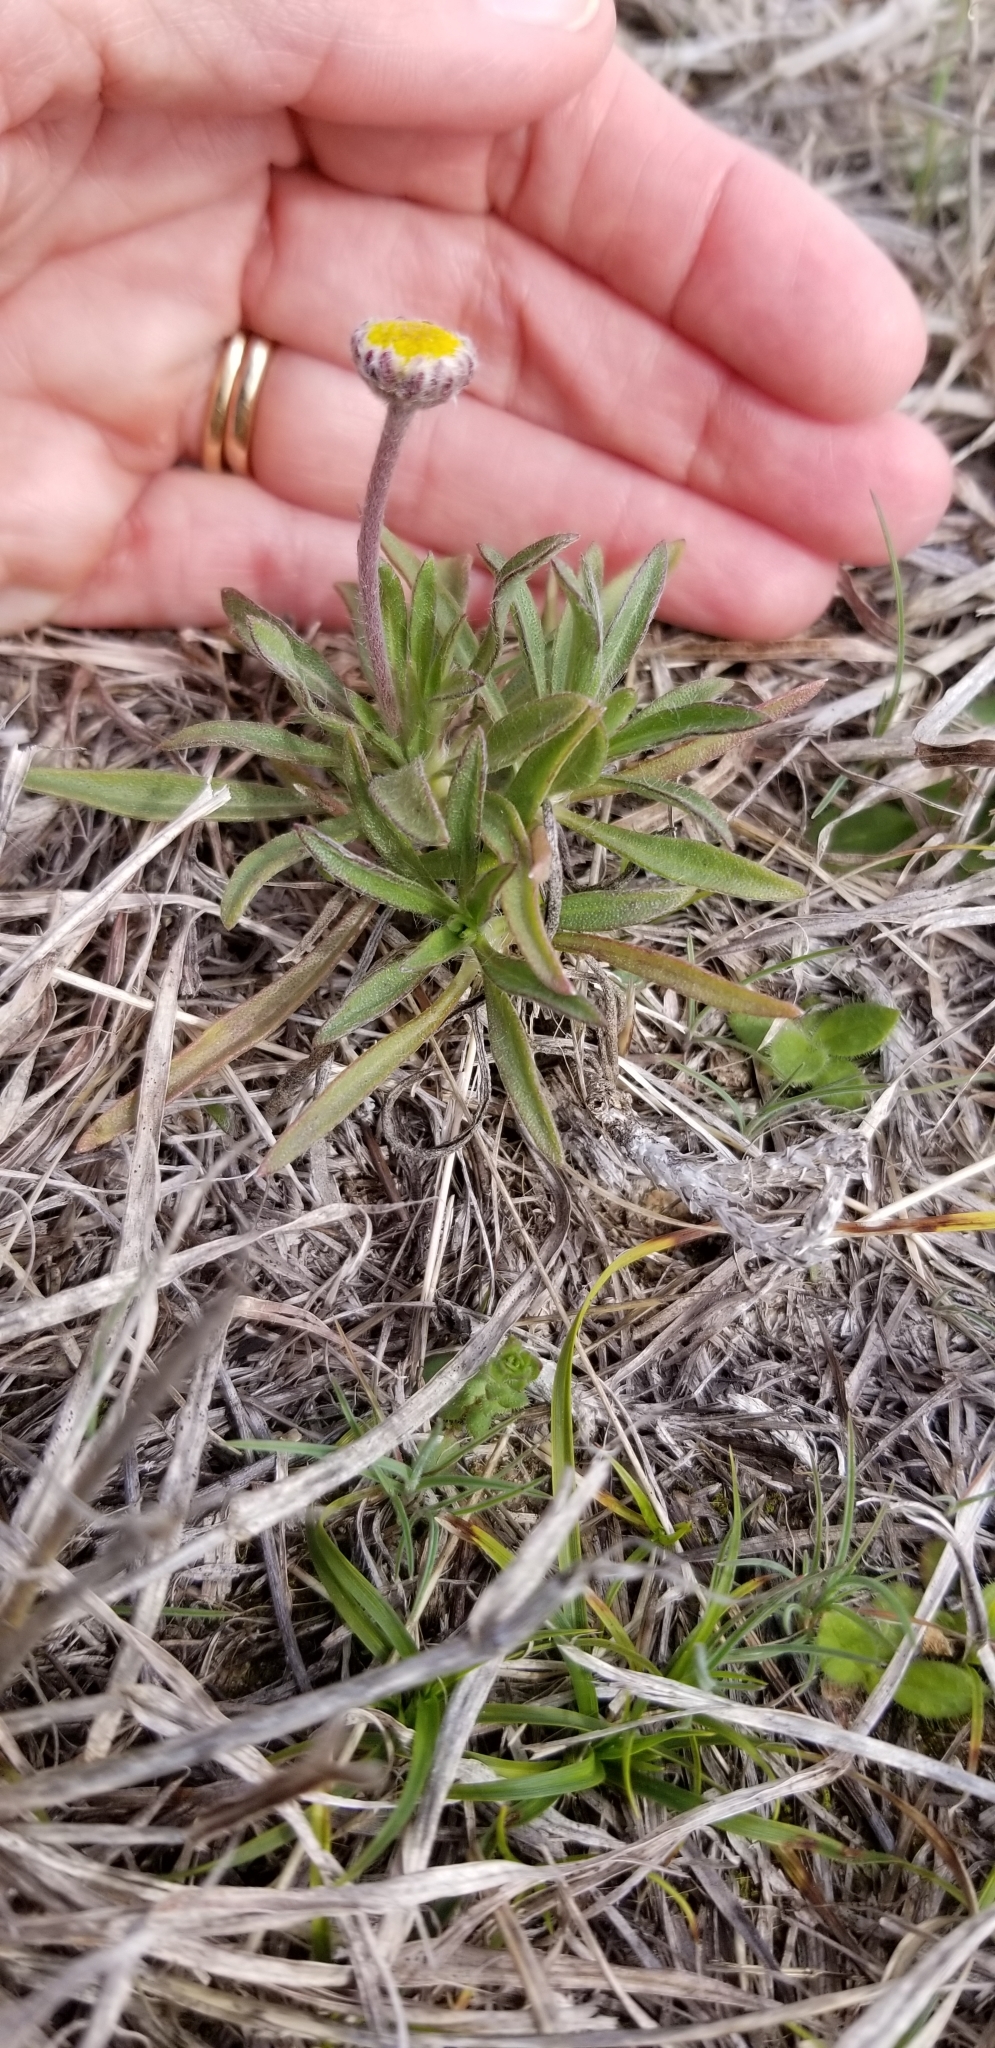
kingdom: Plantae
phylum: Tracheophyta
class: Magnoliopsida
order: Asterales
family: Asteraceae
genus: Tetraneuris
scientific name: Tetraneuris scaposa
